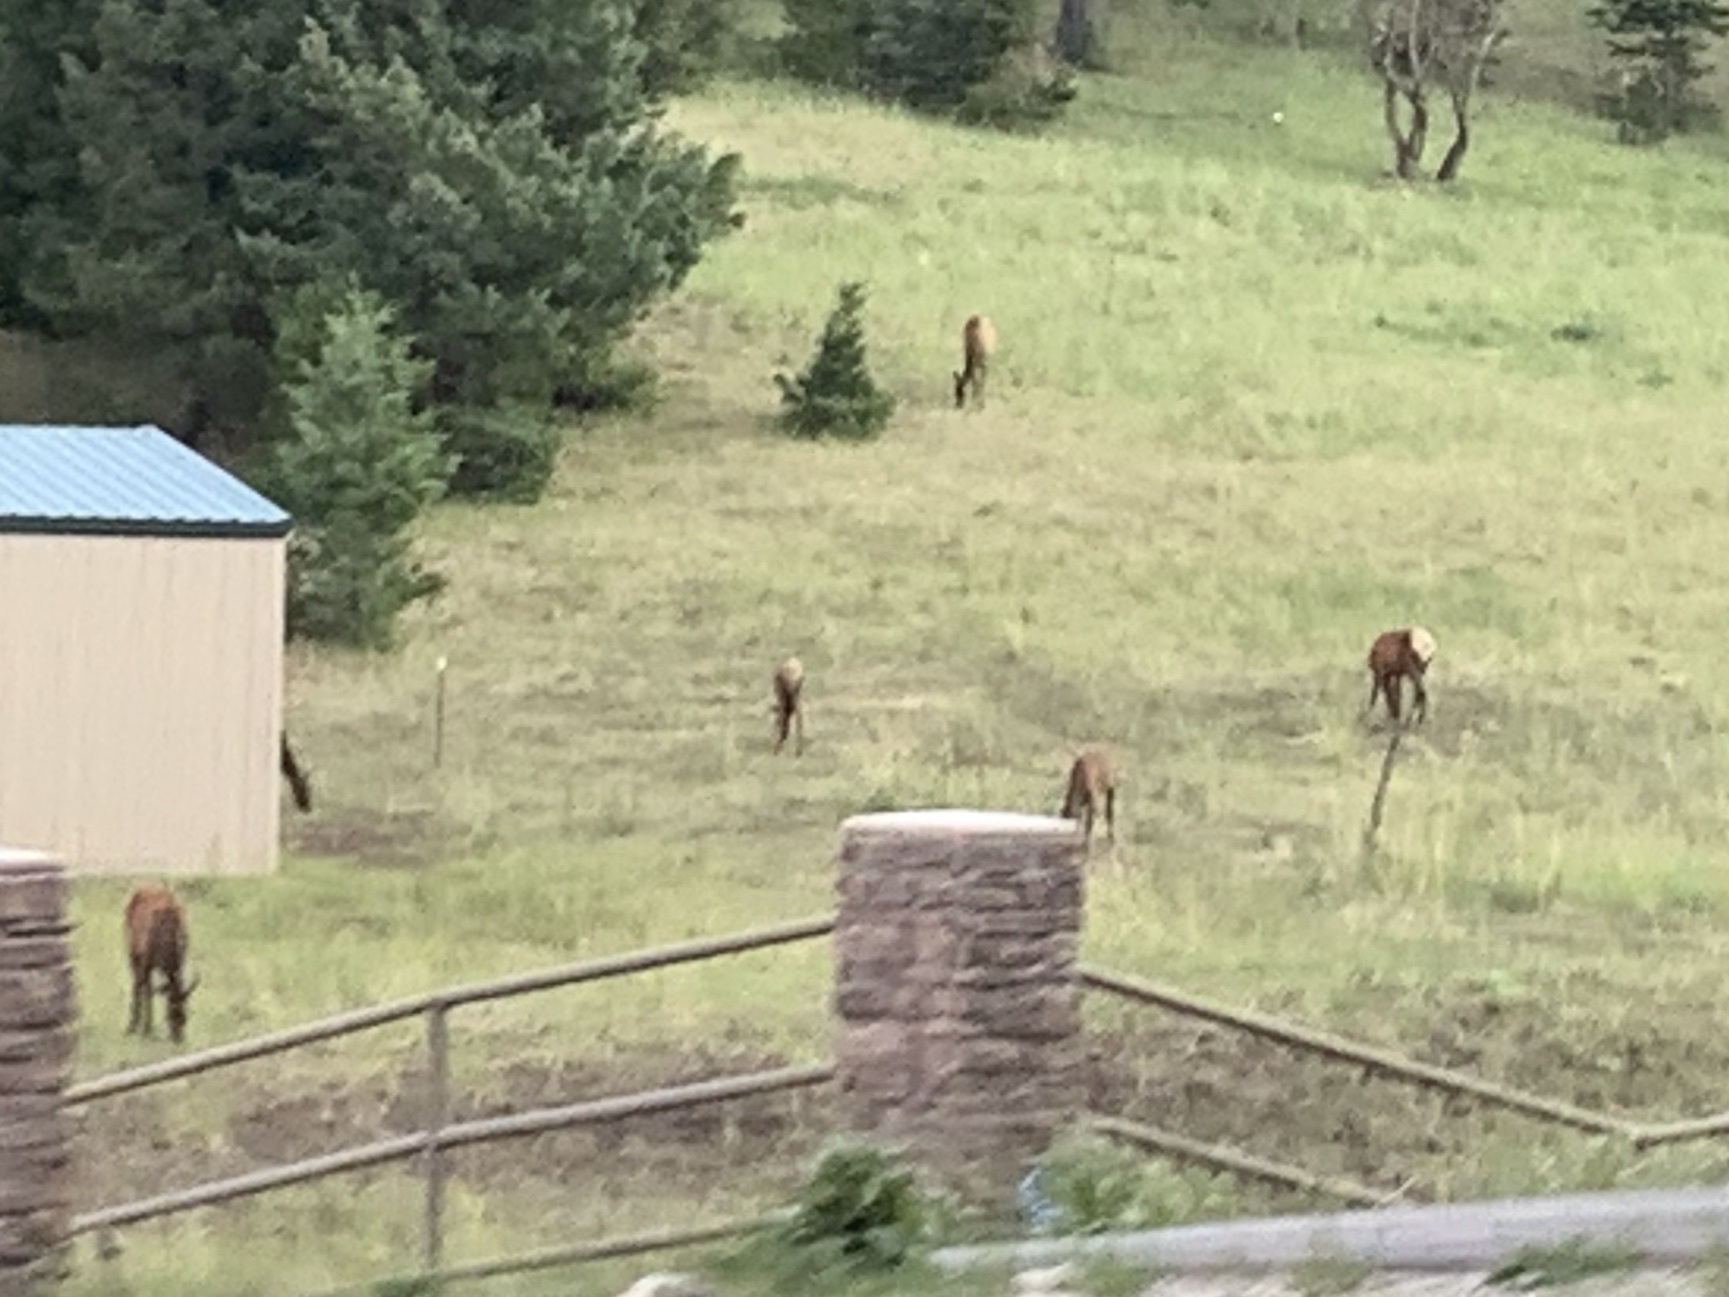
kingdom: Animalia
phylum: Chordata
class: Mammalia
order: Artiodactyla
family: Cervidae
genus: Cervus
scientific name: Cervus elaphus
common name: Red deer
